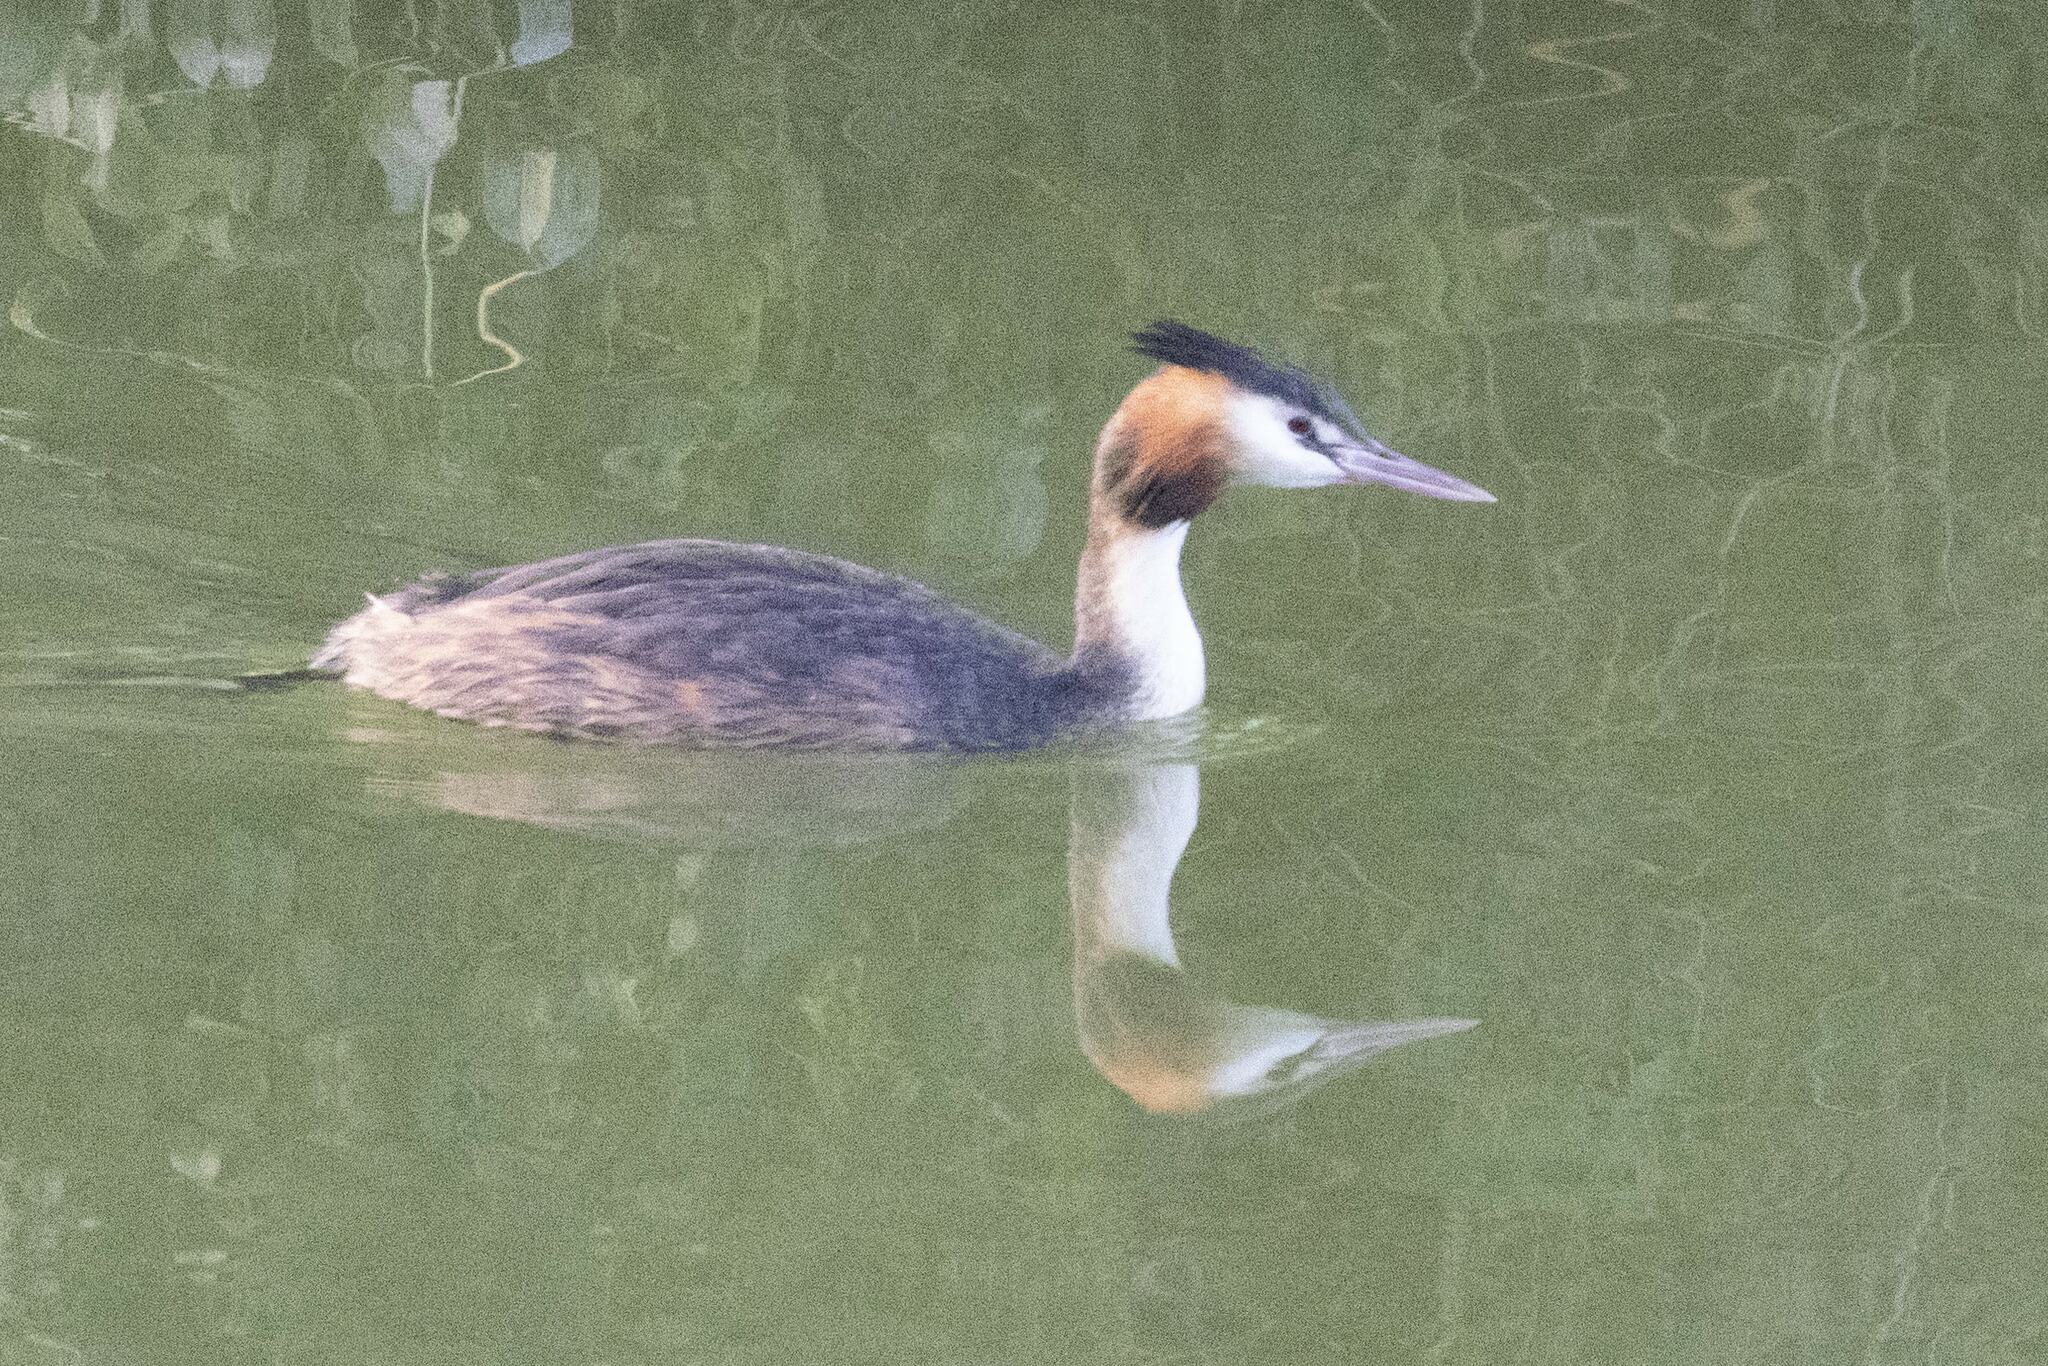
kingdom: Animalia
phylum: Chordata
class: Aves
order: Podicipediformes
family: Podicipedidae
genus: Podiceps
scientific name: Podiceps cristatus
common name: Great crested grebe
